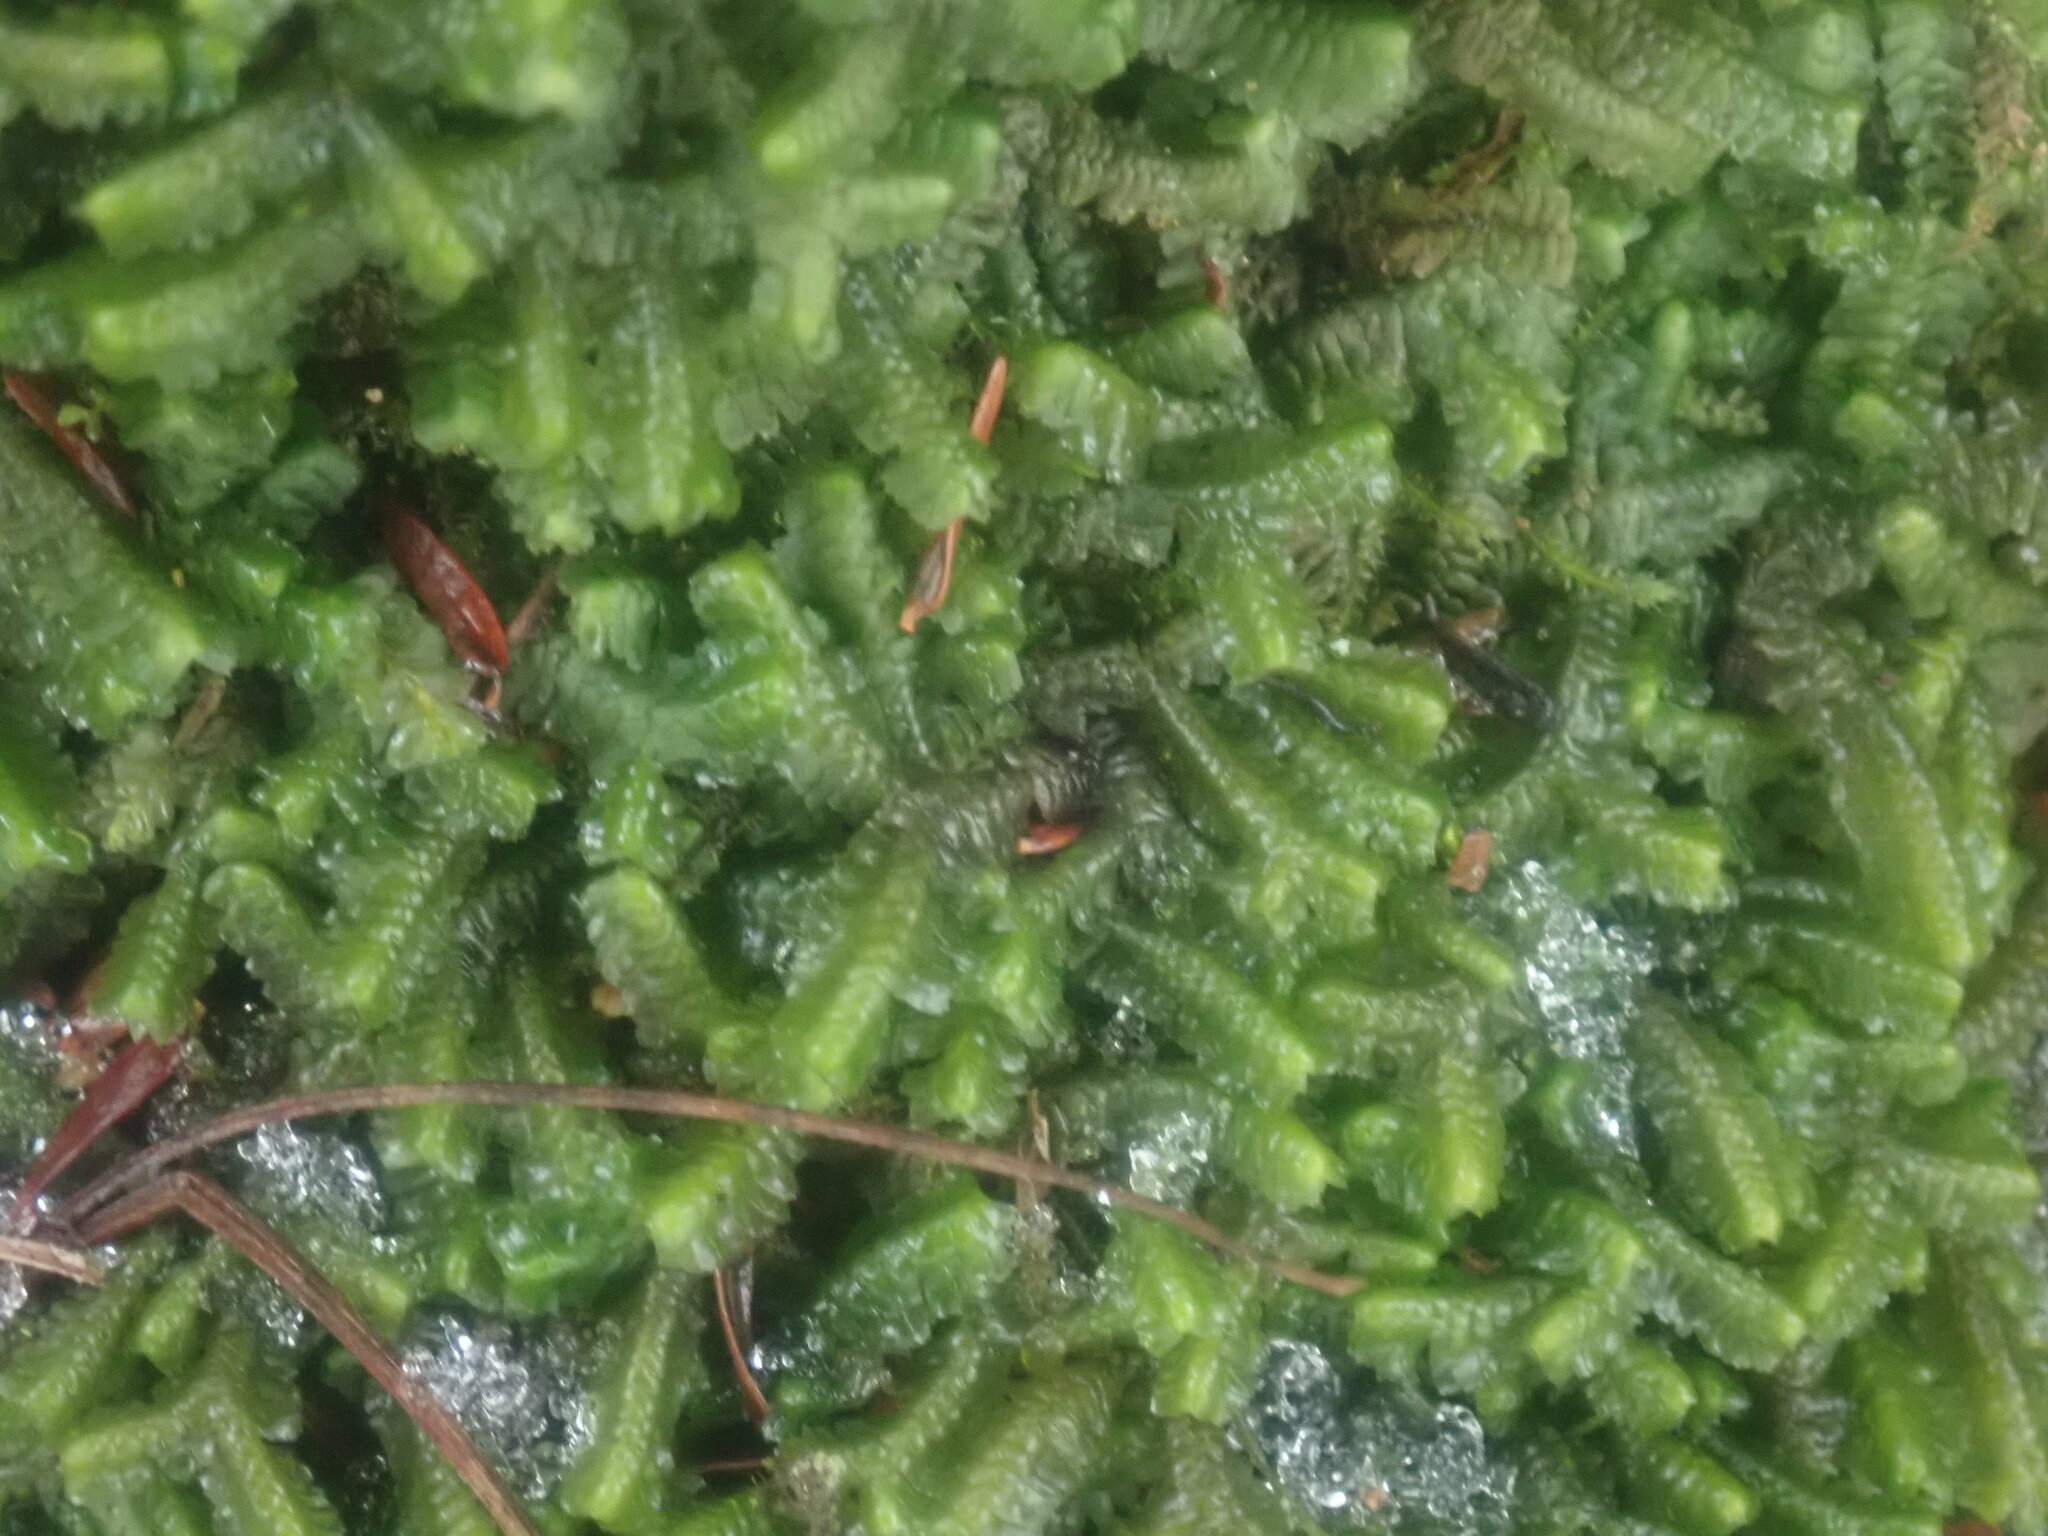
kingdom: Plantae
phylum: Marchantiophyta
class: Jungermanniopsida
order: Jungermanniales
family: Lepidoziaceae
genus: Bazzania
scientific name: Bazzania trilobata
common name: Three-lobed whipwort
